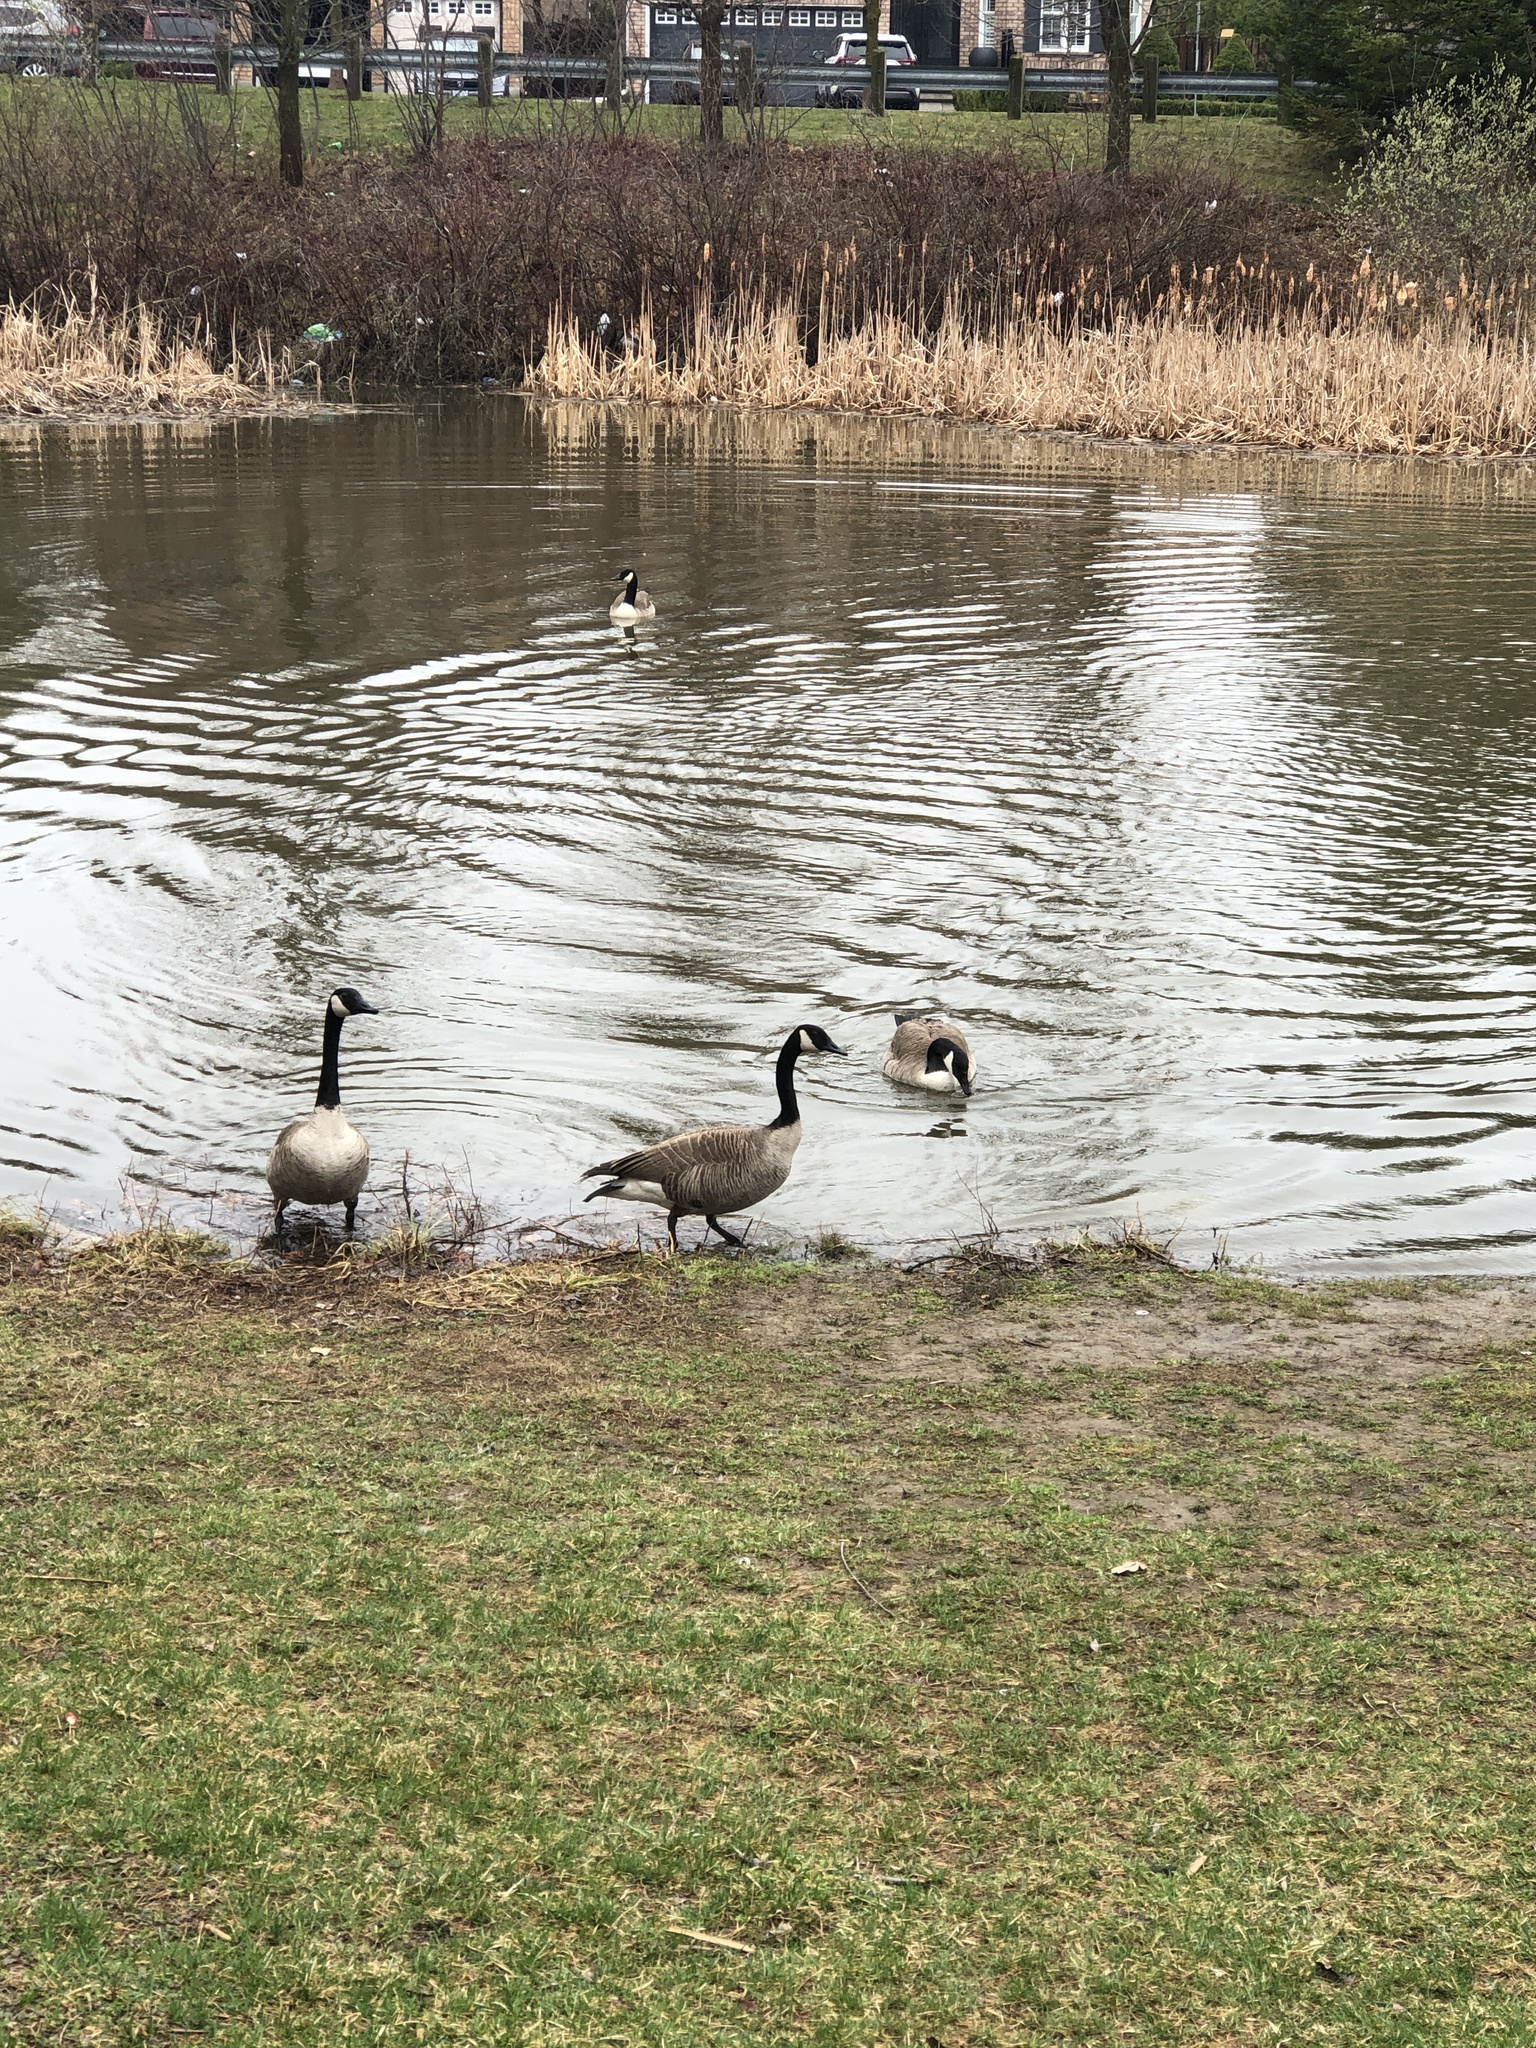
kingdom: Animalia
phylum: Chordata
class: Aves
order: Anseriformes
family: Anatidae
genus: Branta
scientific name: Branta canadensis
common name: Canada goose
